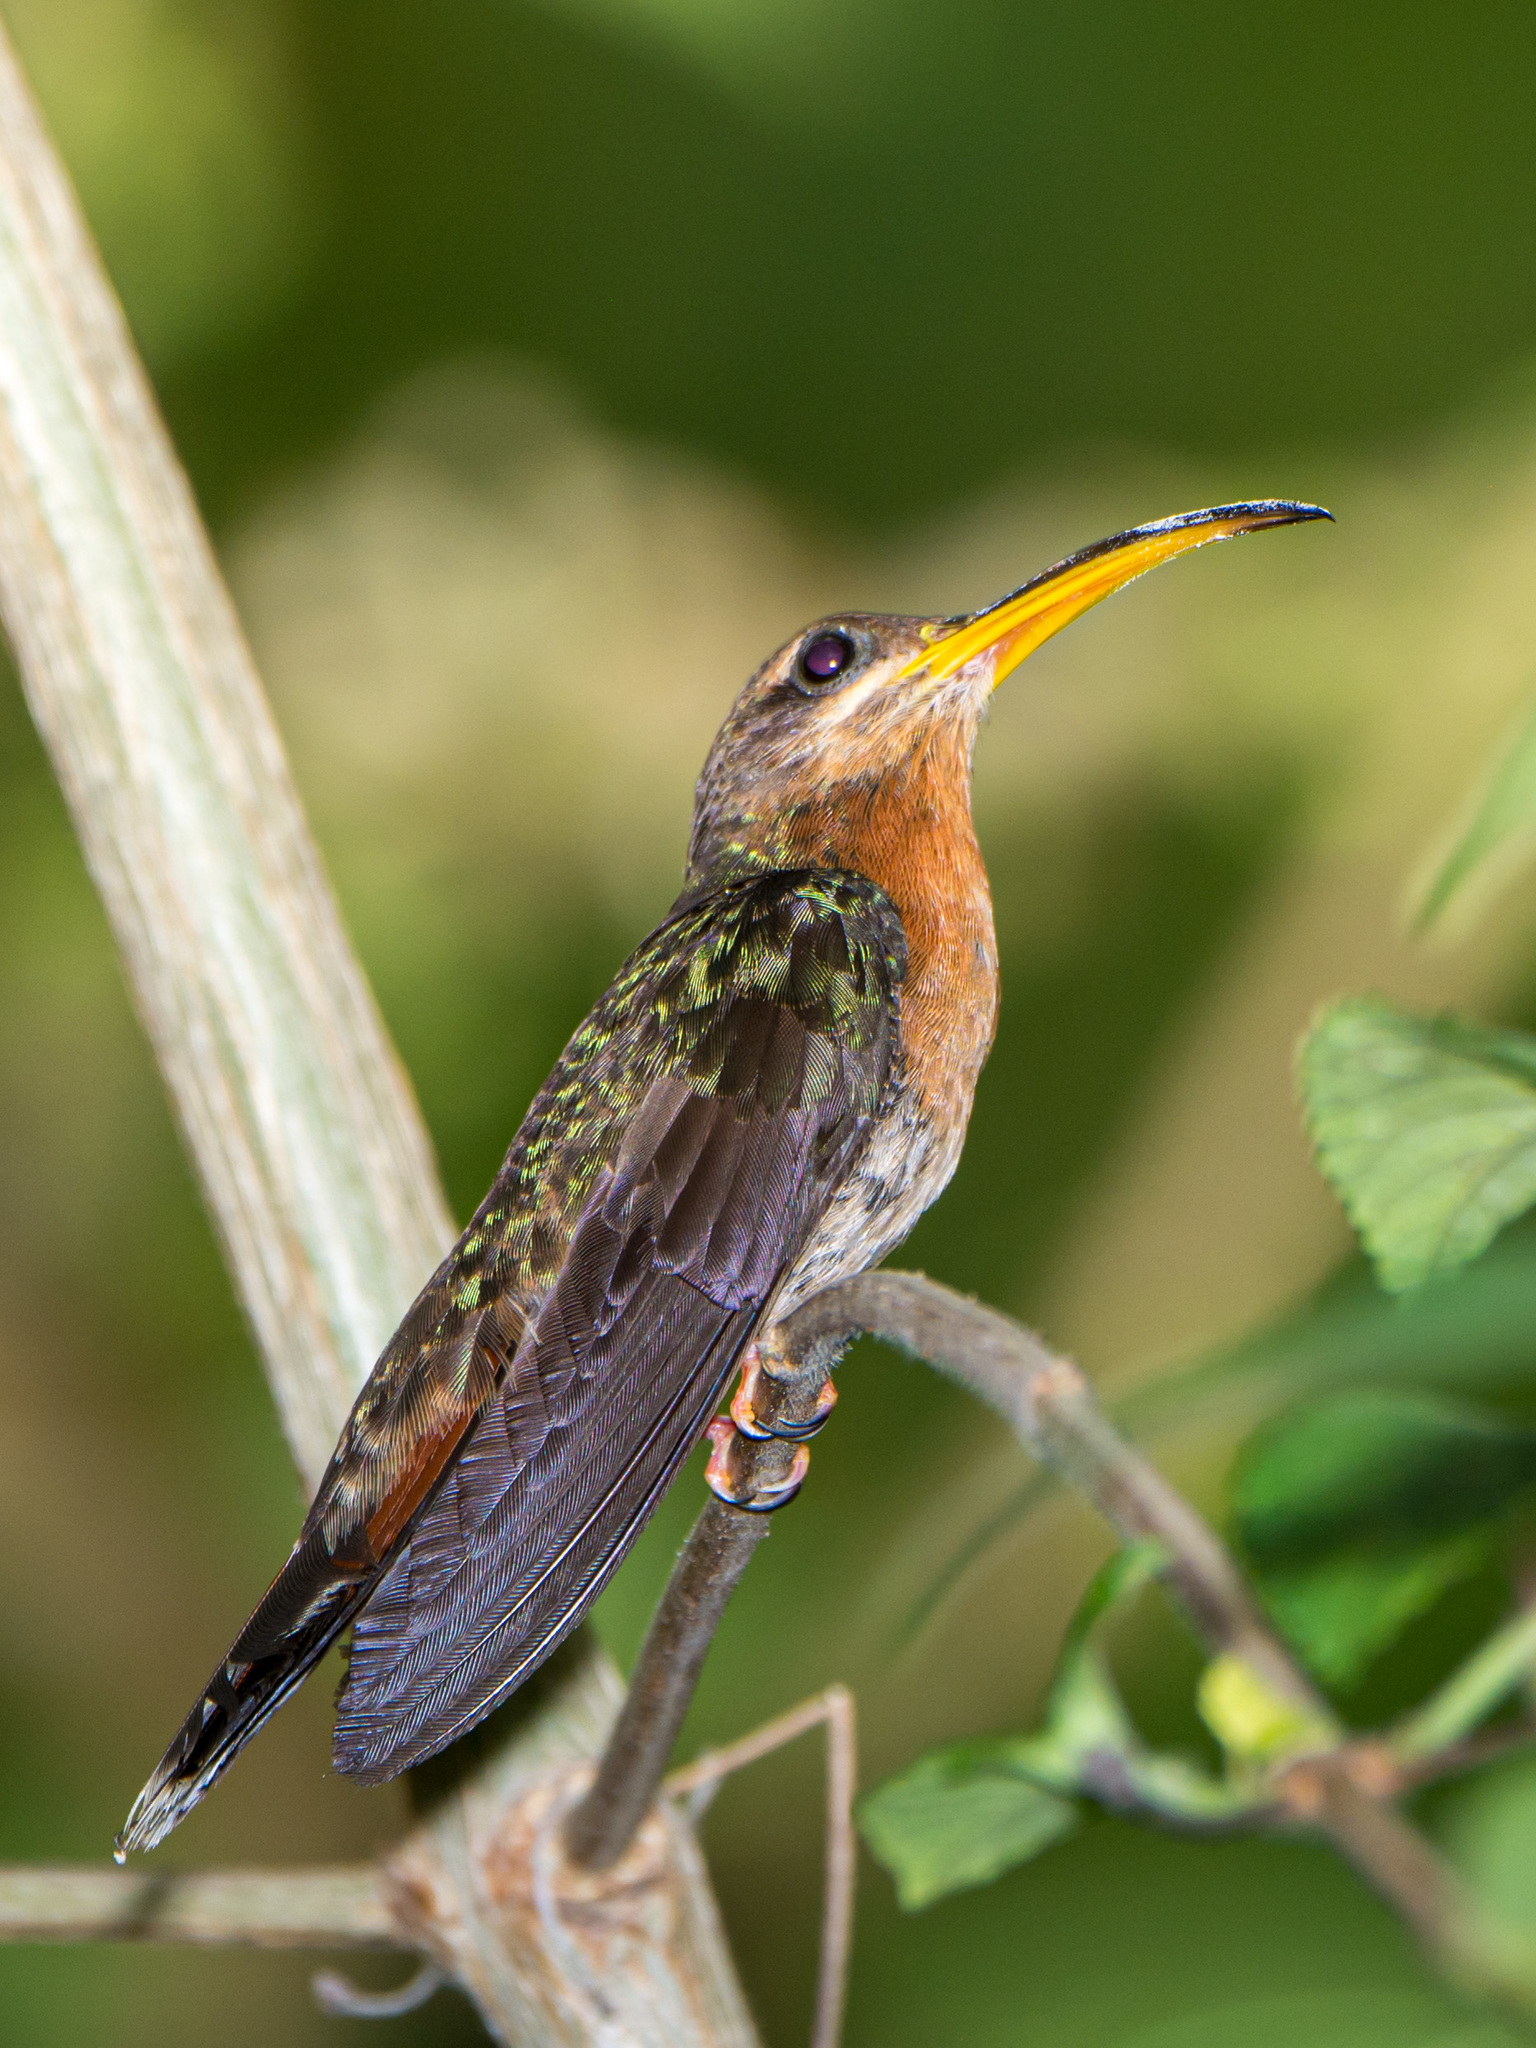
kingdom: Animalia
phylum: Chordata
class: Aves
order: Apodiformes
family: Trochilidae
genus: Glaucis
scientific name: Glaucis hirsutus
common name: Rufous-breasted hermit
